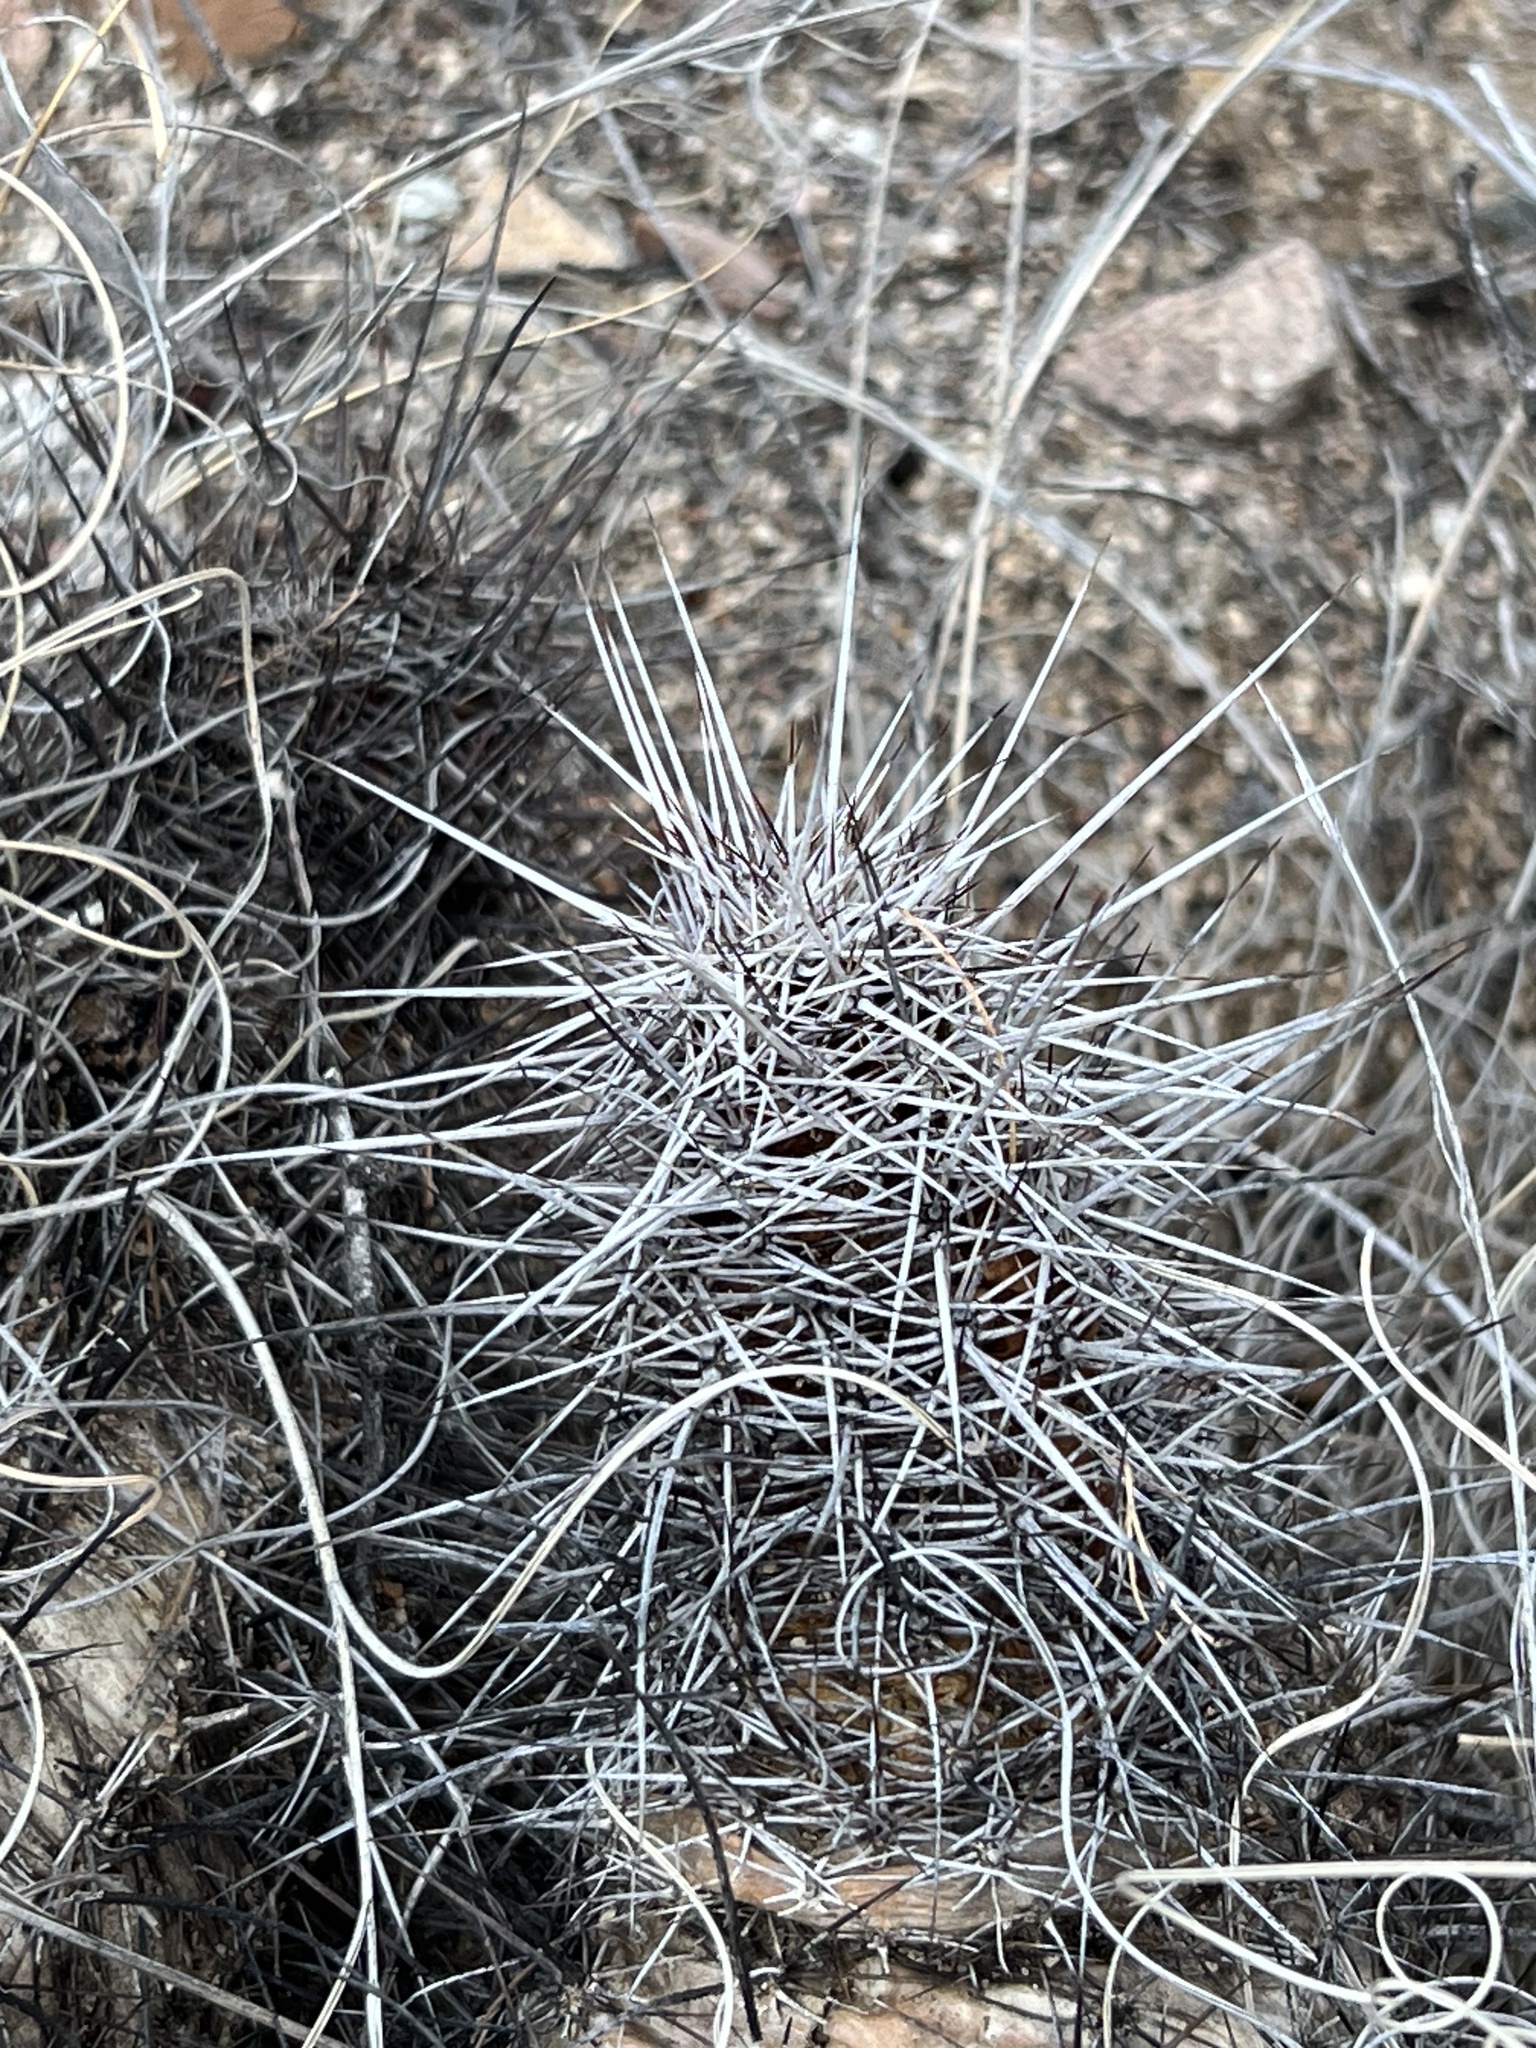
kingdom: Plantae
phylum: Tracheophyta
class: Magnoliopsida
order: Caryophyllales
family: Cactaceae
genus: Echinocereus
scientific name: Echinocereus fasciculatus
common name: Bundle hedgehog
